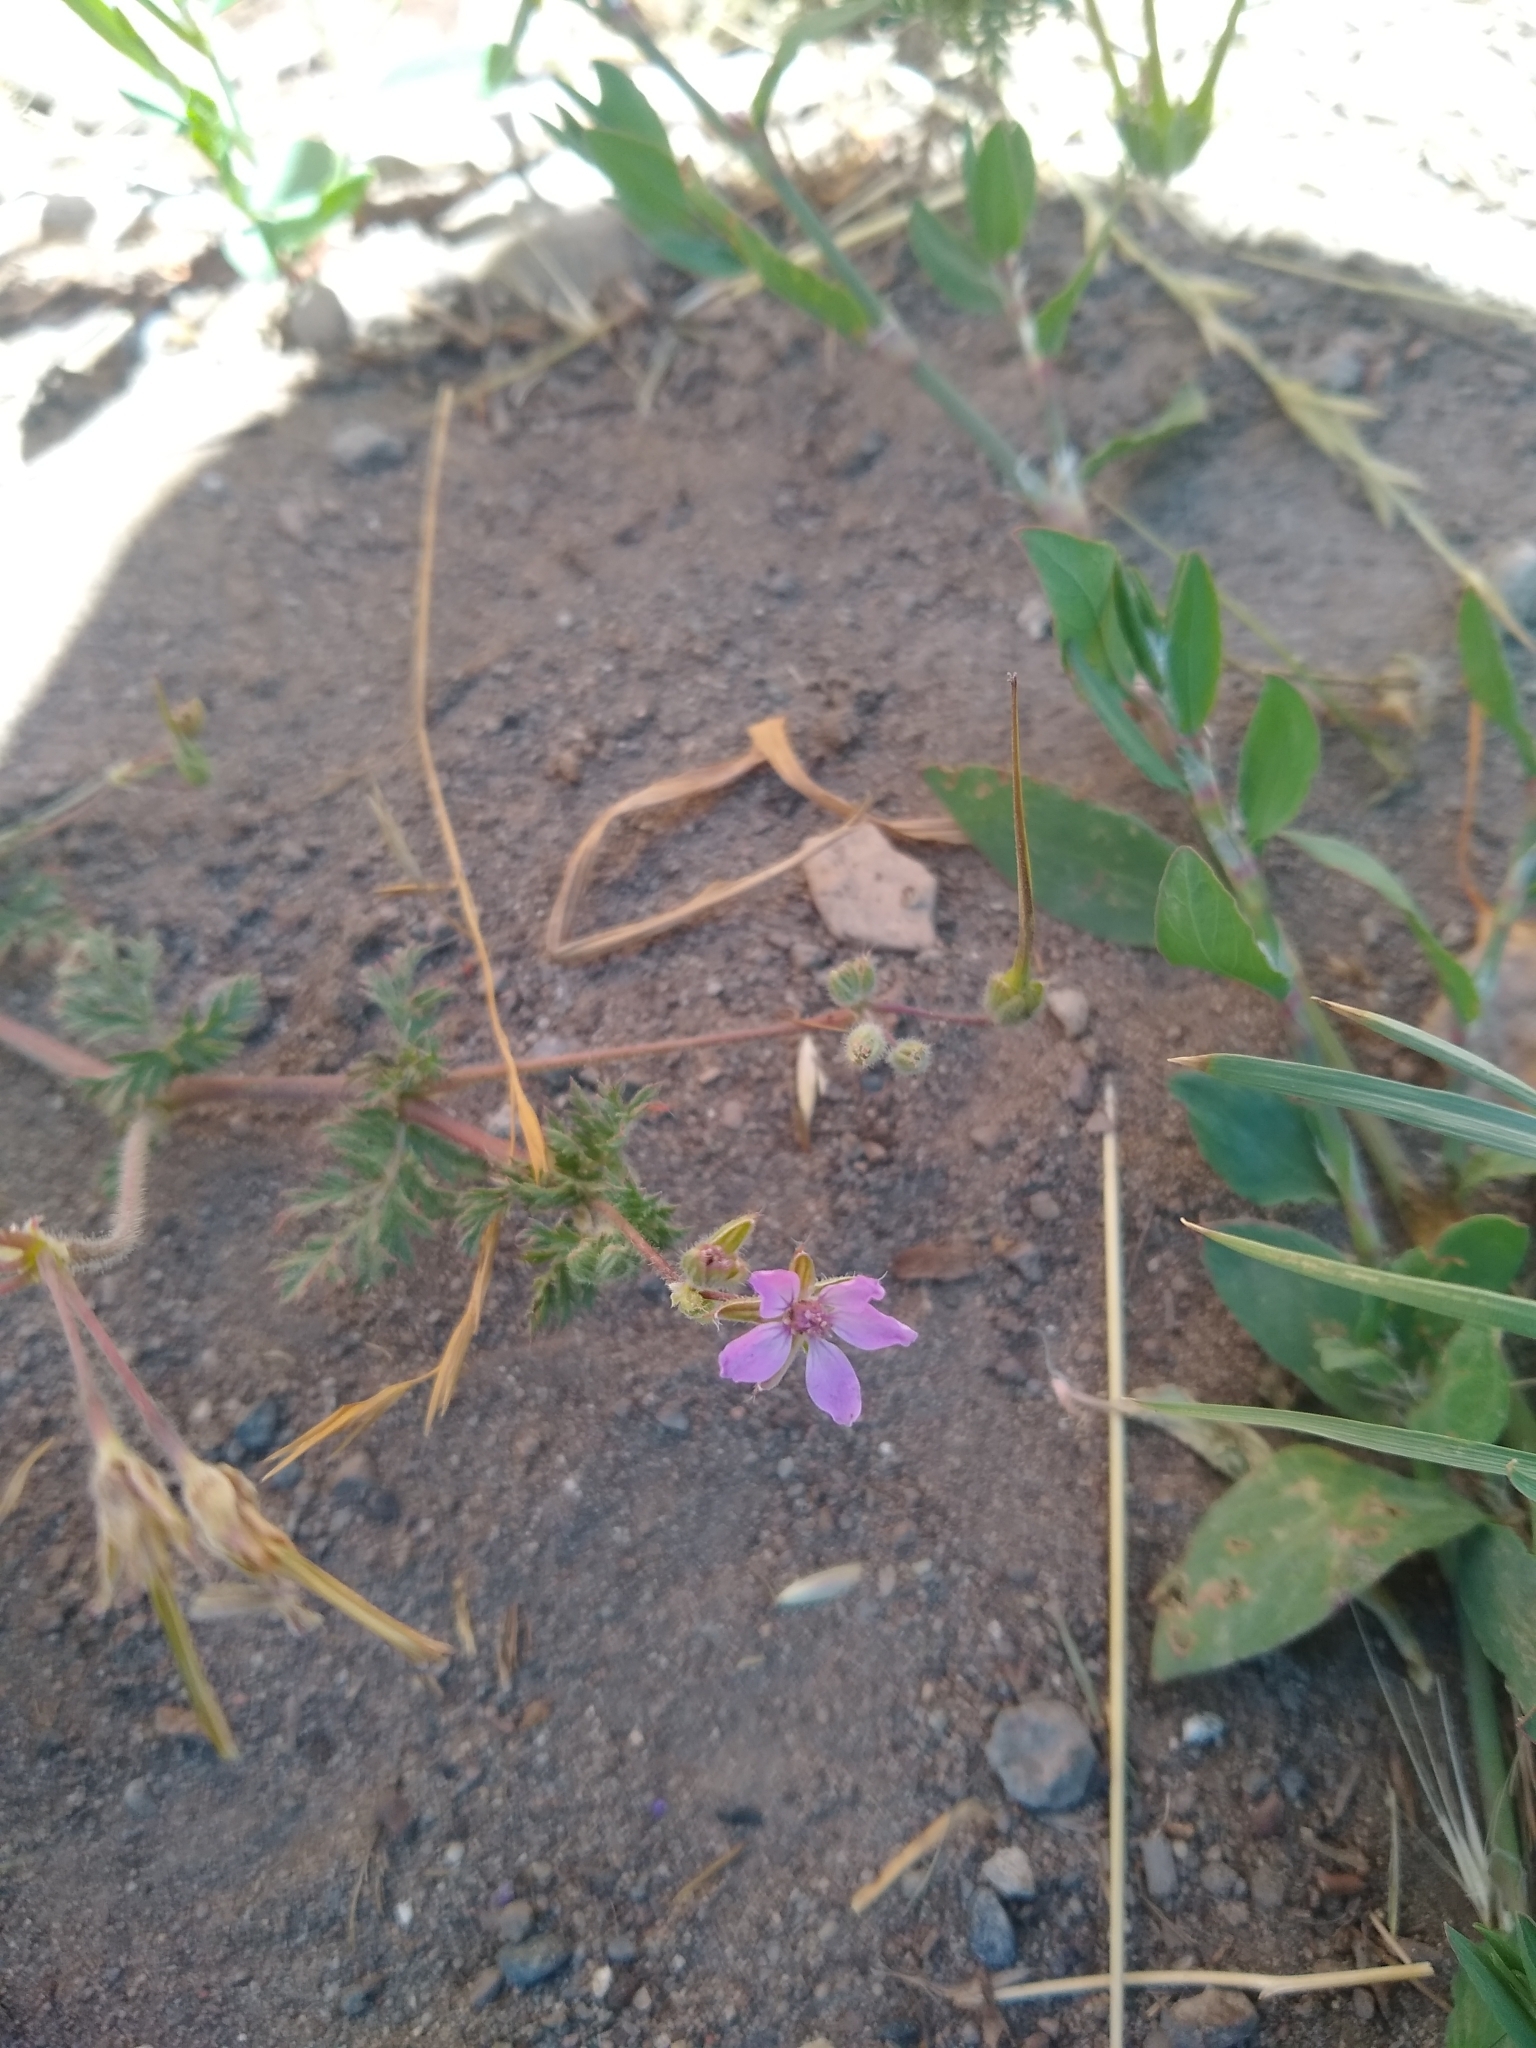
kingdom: Plantae
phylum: Tracheophyta
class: Magnoliopsida
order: Geraniales
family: Geraniaceae
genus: Erodium
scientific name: Erodium cicutarium
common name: Common stork's-bill
